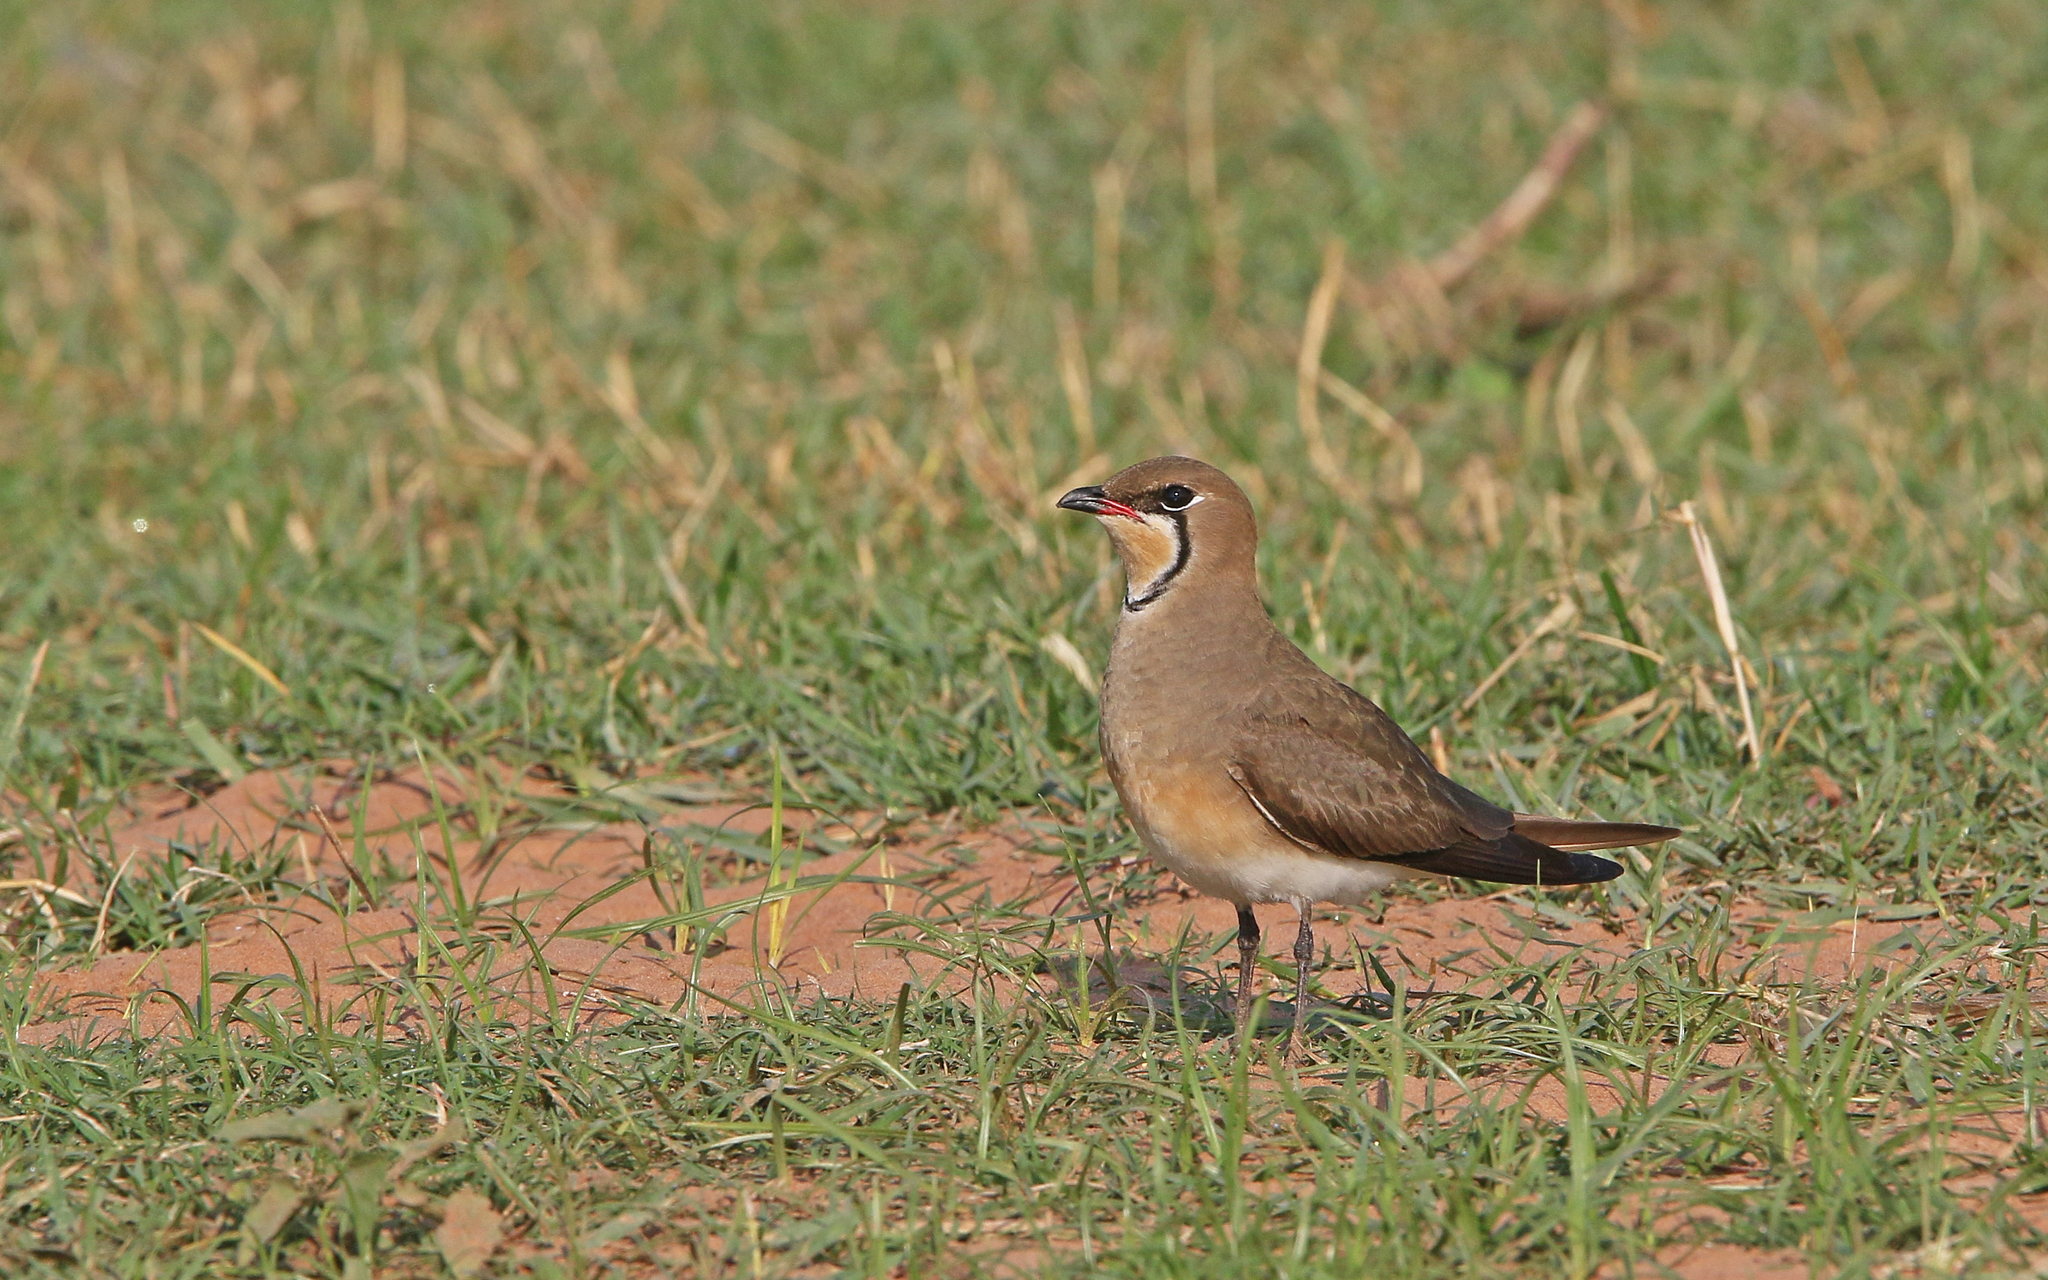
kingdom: Animalia
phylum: Chordata
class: Aves
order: Charadriiformes
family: Glareolidae
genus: Glareola
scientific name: Glareola maldivarum
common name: Oriental pratincole
